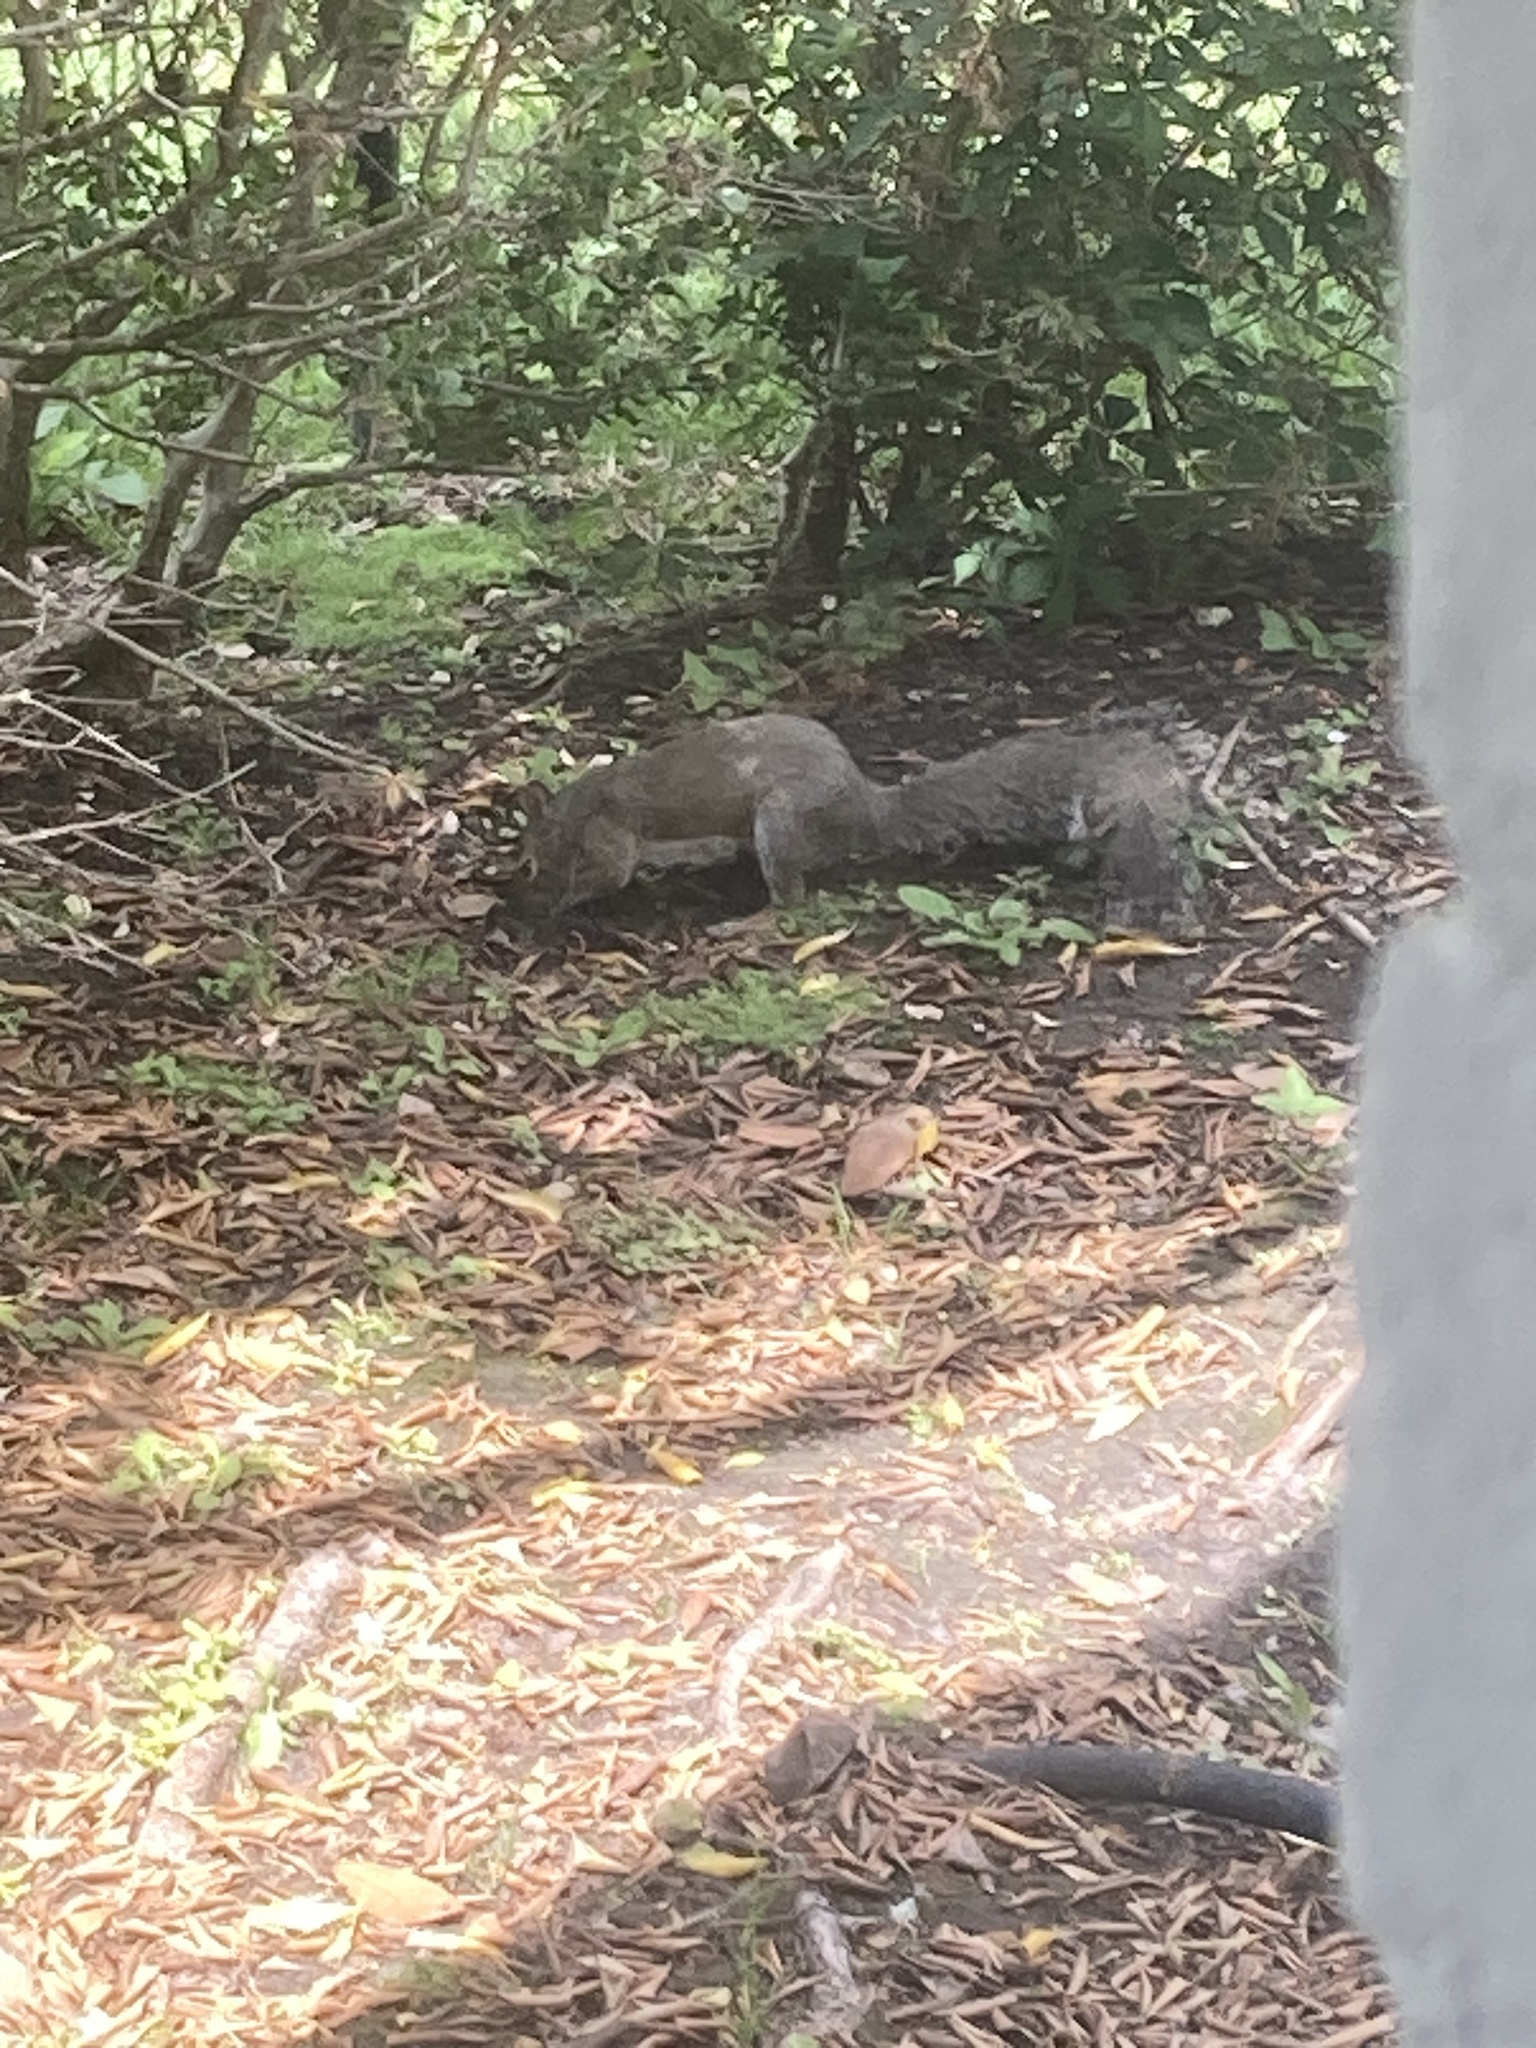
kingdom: Animalia
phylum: Chordata
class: Mammalia
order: Rodentia
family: Sciuridae
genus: Sciurus
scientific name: Sciurus carolinensis
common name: Eastern gray squirrel
